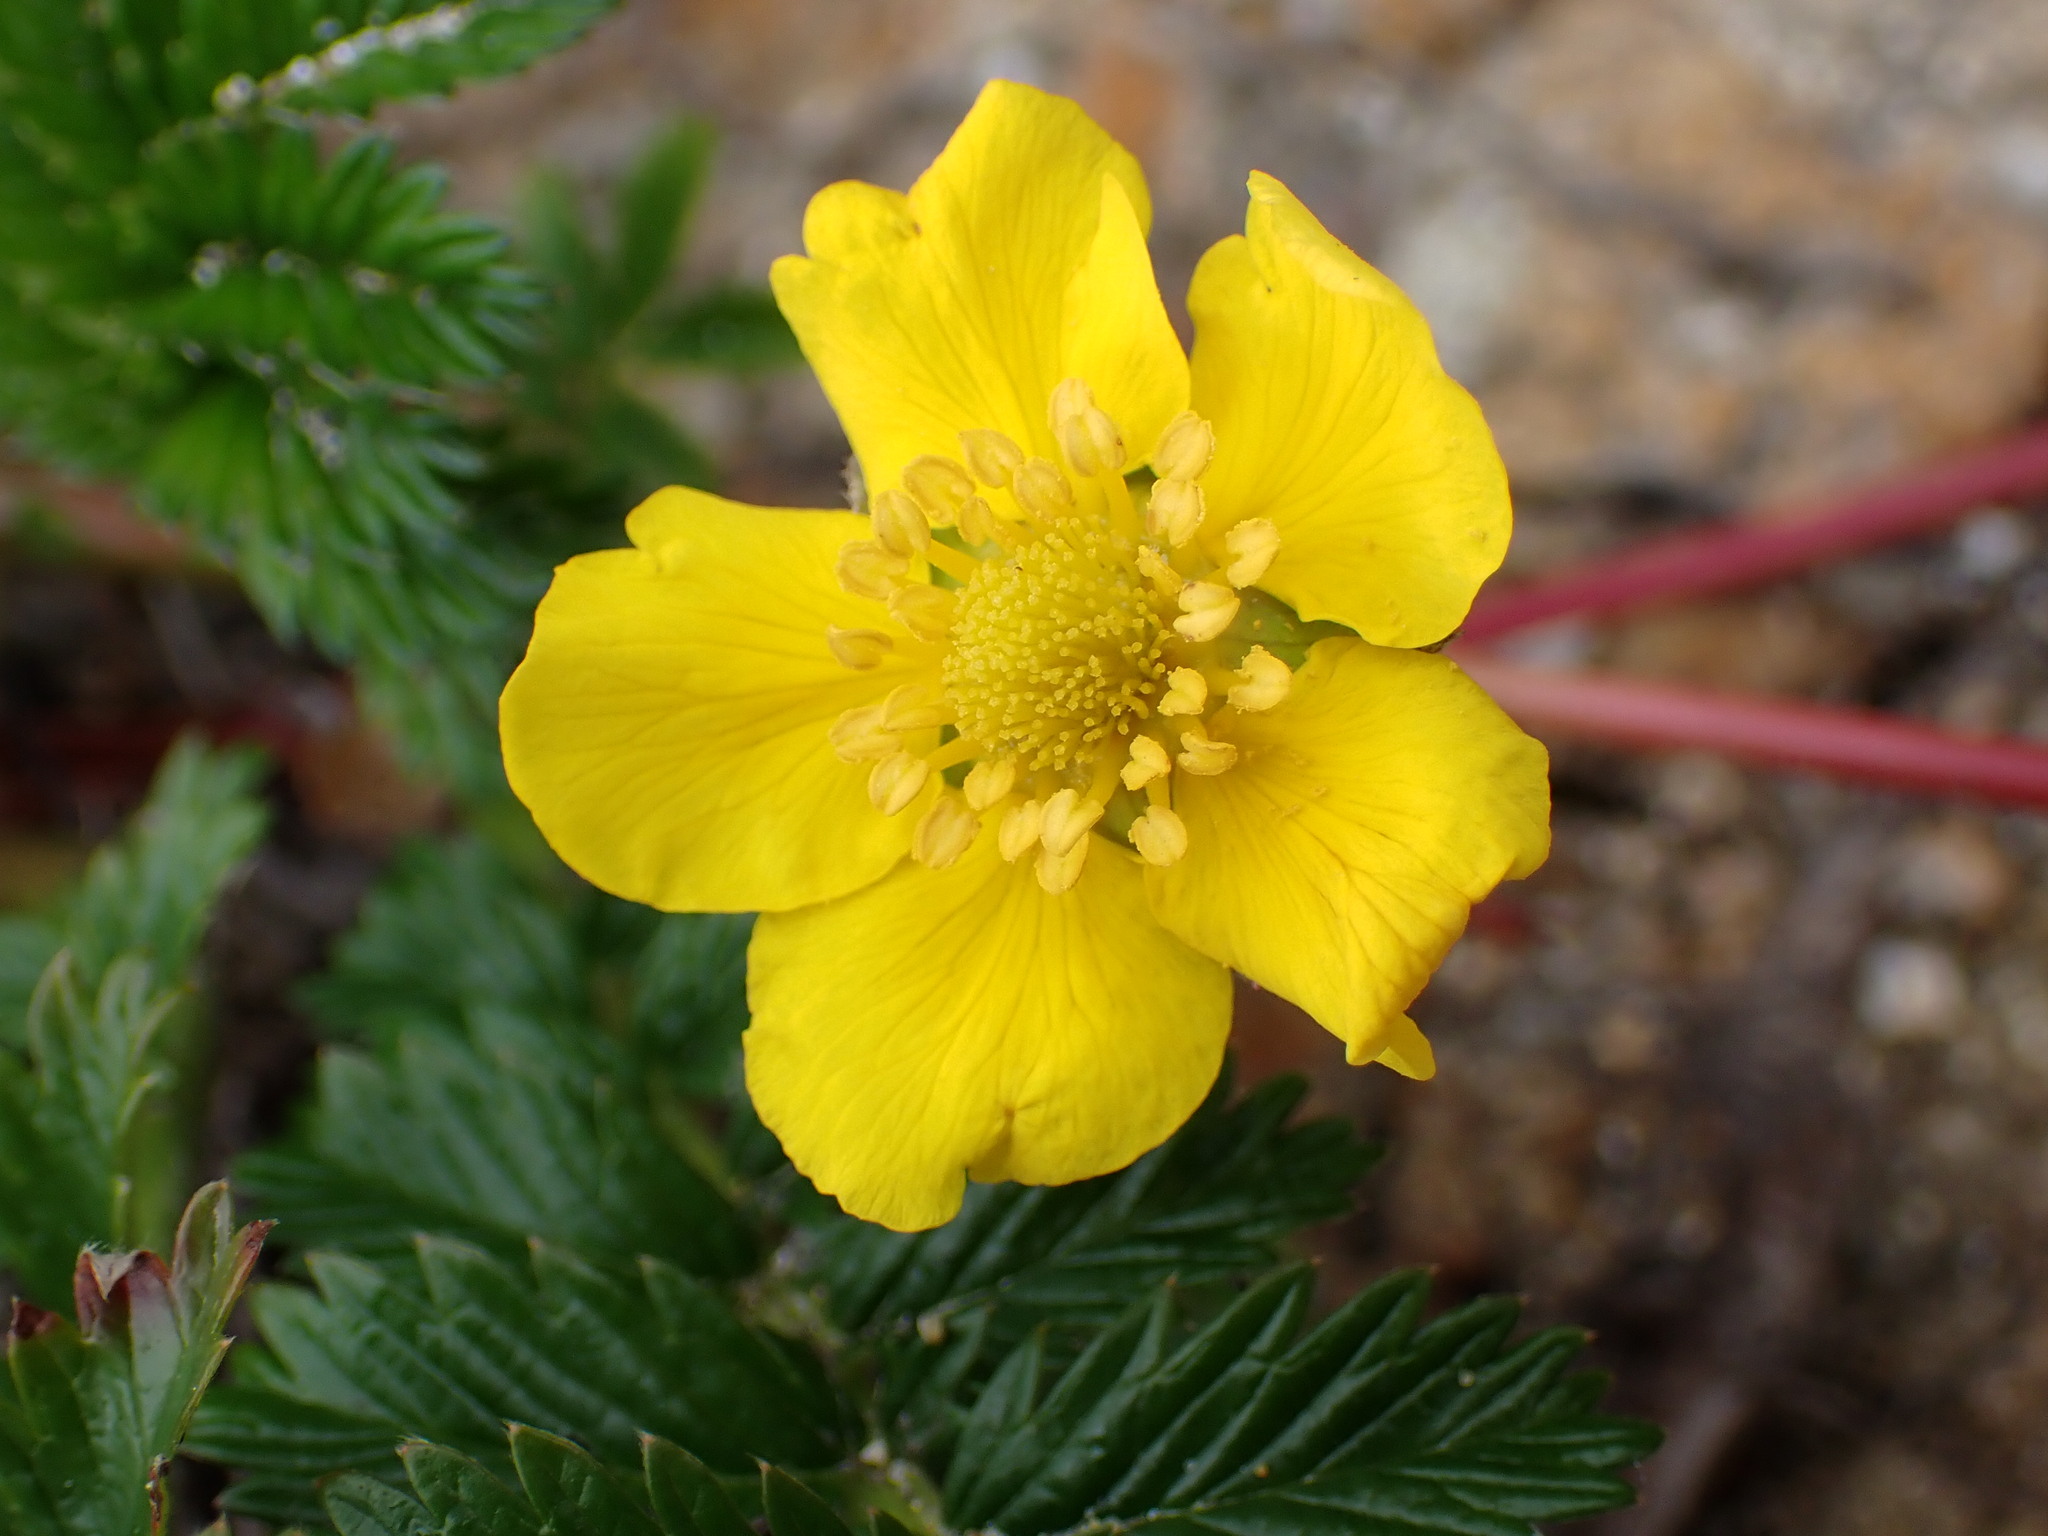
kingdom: Plantae
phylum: Tracheophyta
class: Magnoliopsida
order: Rosales
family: Rosaceae
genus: Argentina
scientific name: Argentina anserina
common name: Common silverweed
